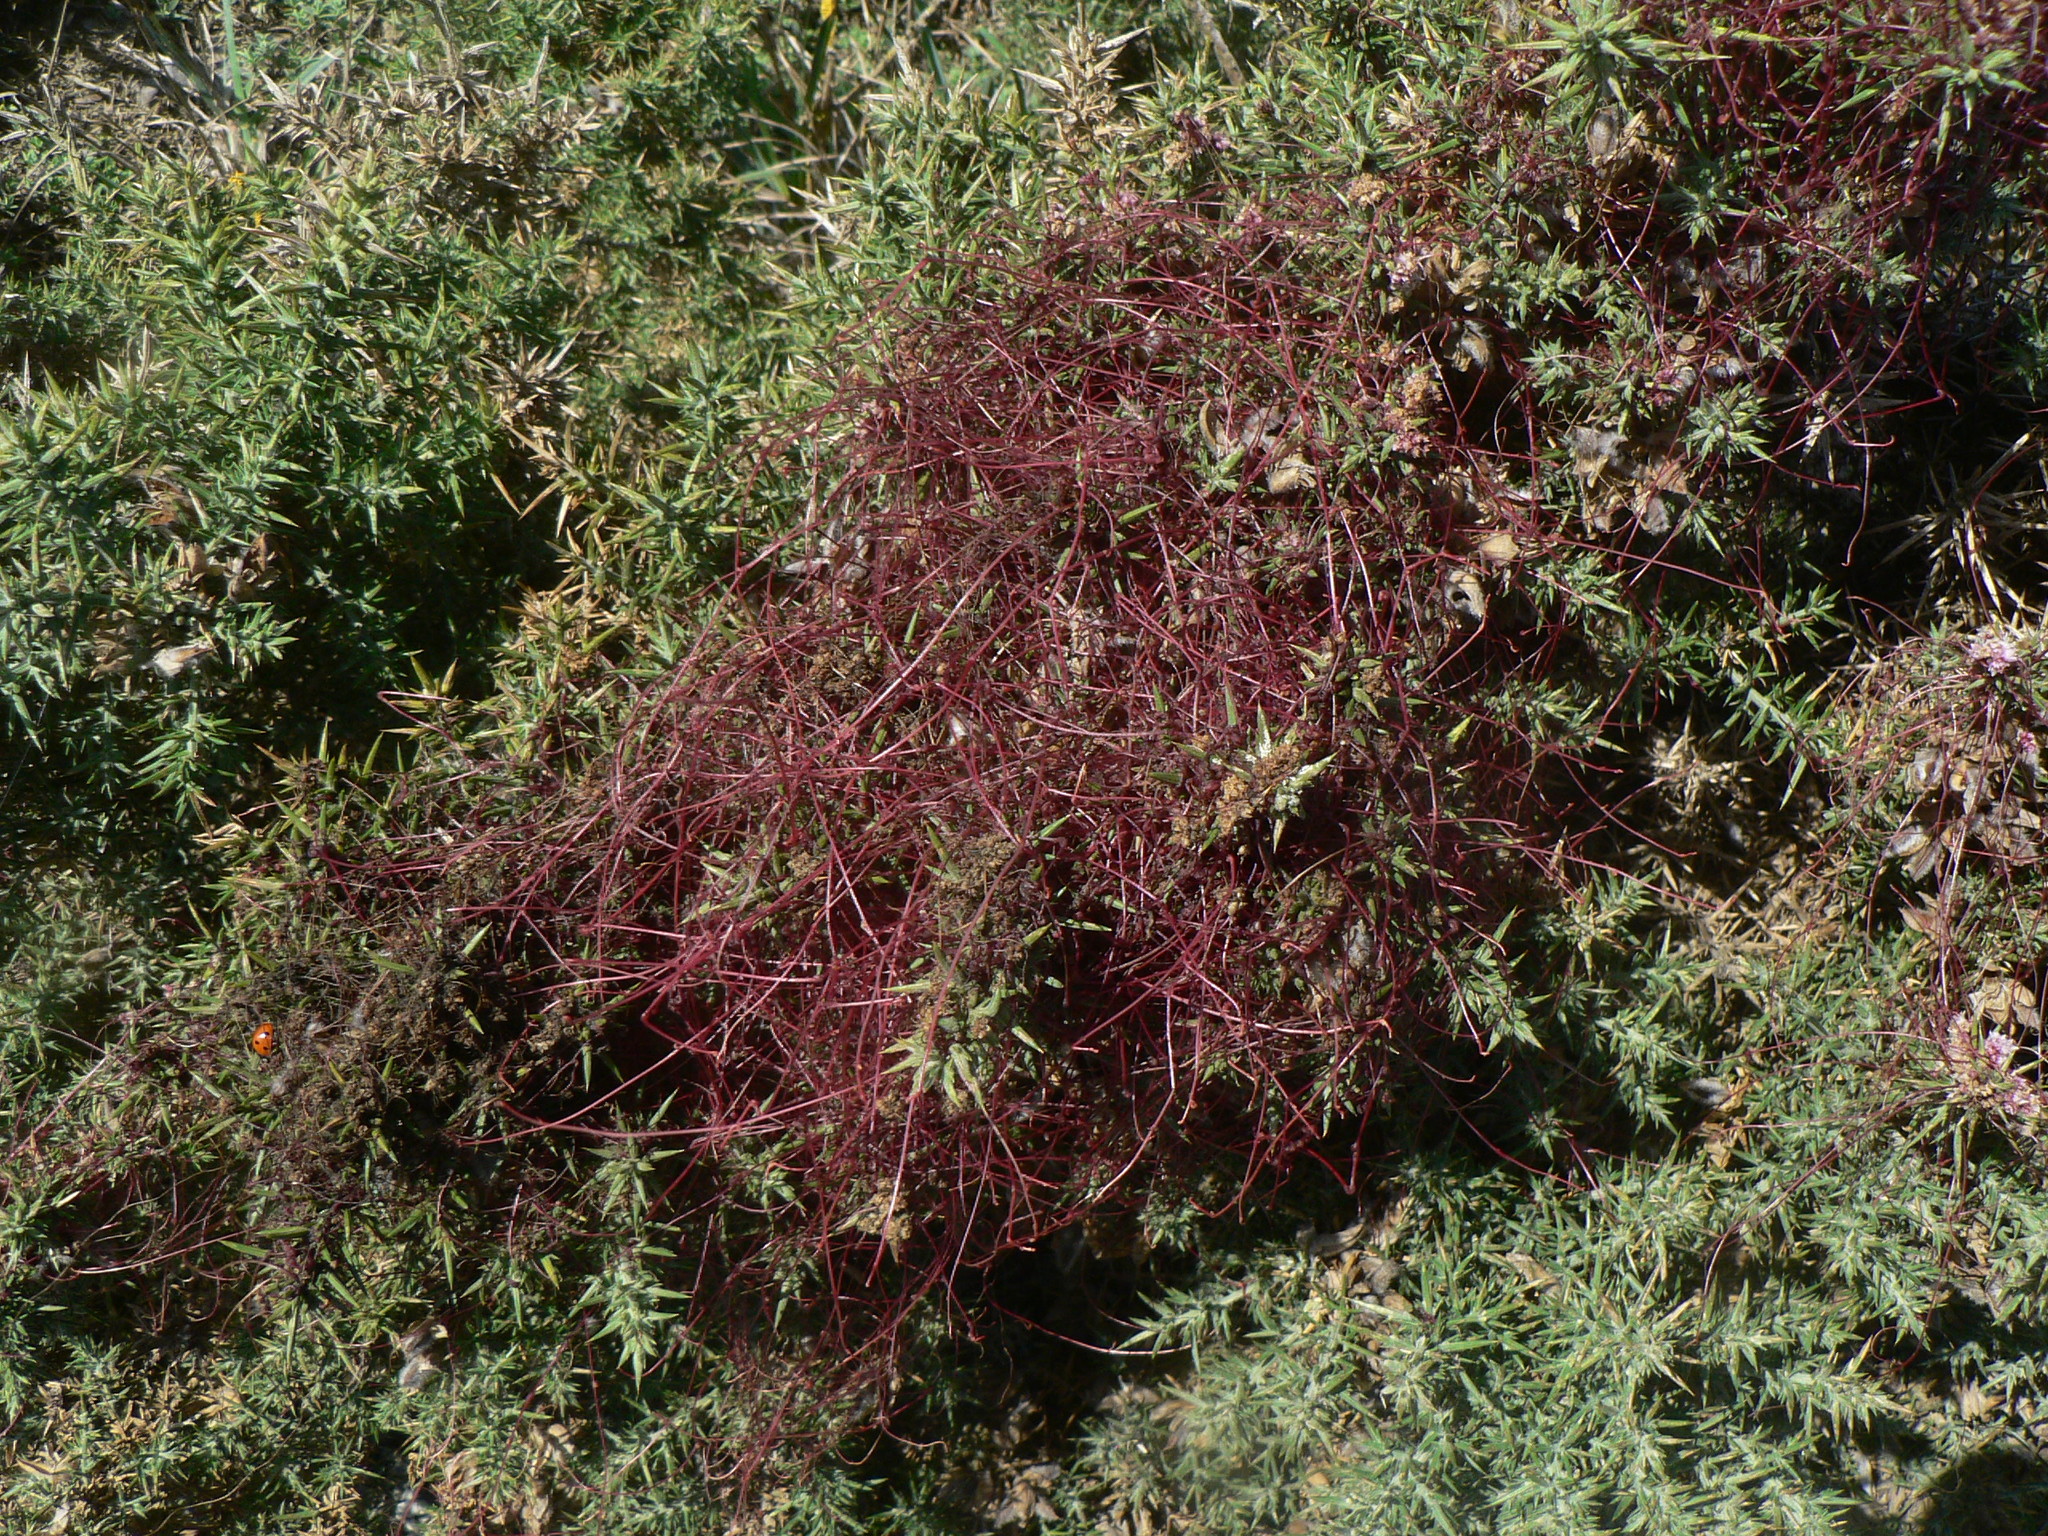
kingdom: Plantae
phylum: Tracheophyta
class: Magnoliopsida
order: Solanales
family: Convolvulaceae
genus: Cuscuta
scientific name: Cuscuta epithymum
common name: Clover dodder
